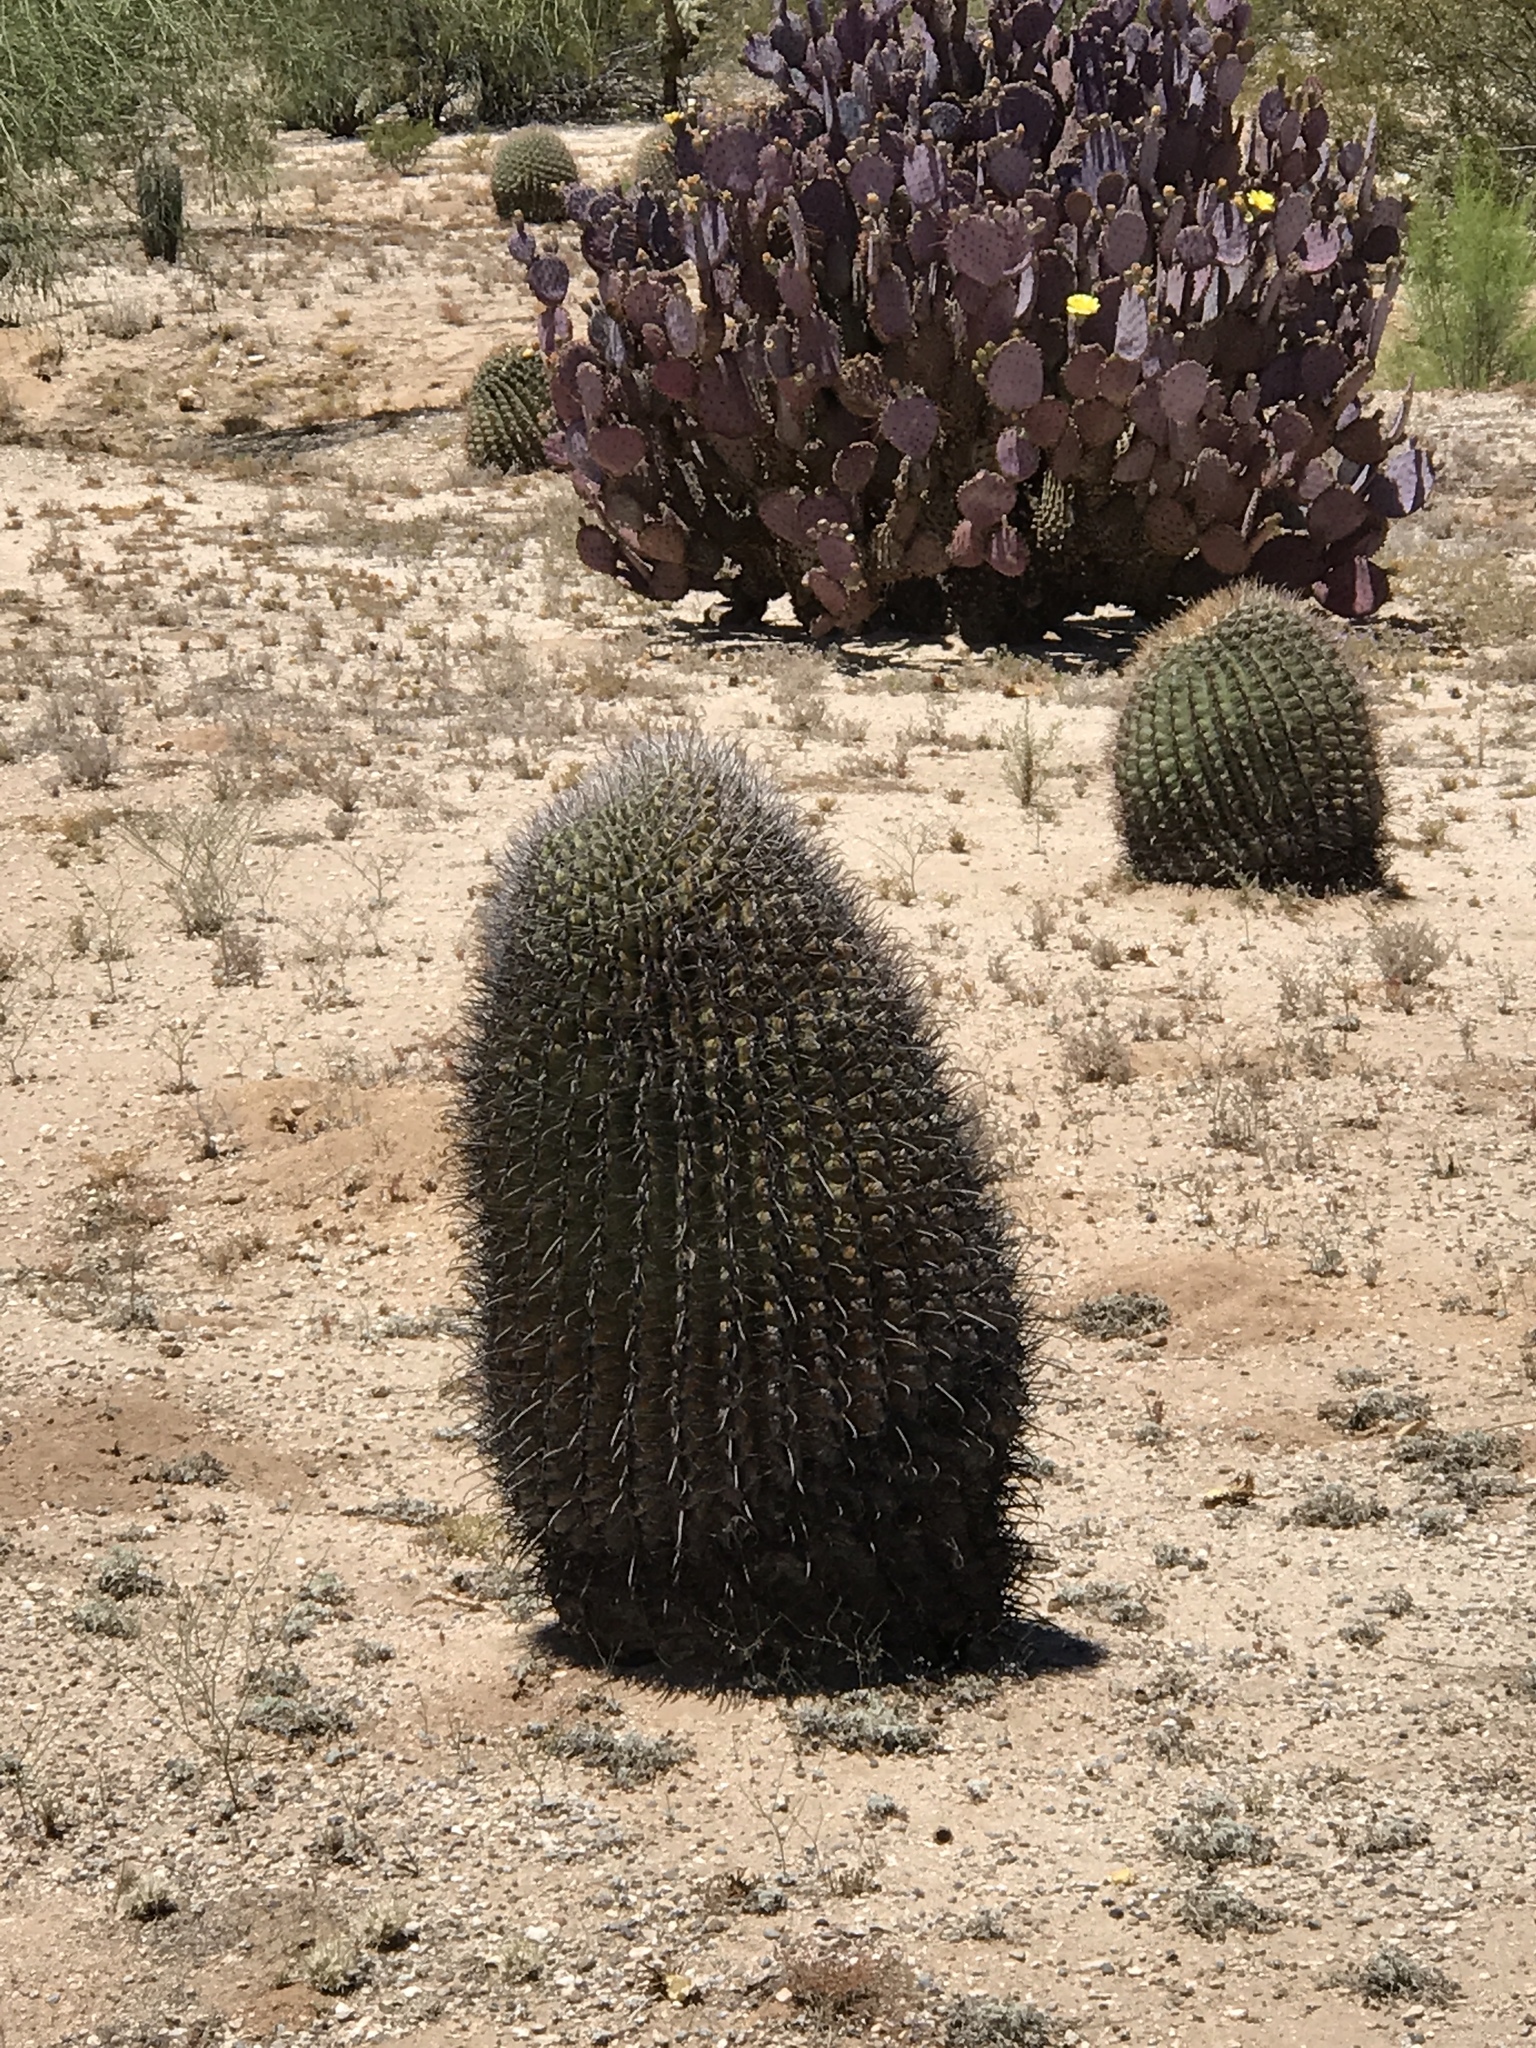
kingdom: Plantae
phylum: Tracheophyta
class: Magnoliopsida
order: Caryophyllales
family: Cactaceae
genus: Ferocactus
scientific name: Ferocactus wislizeni
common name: Candy barrel cactus
